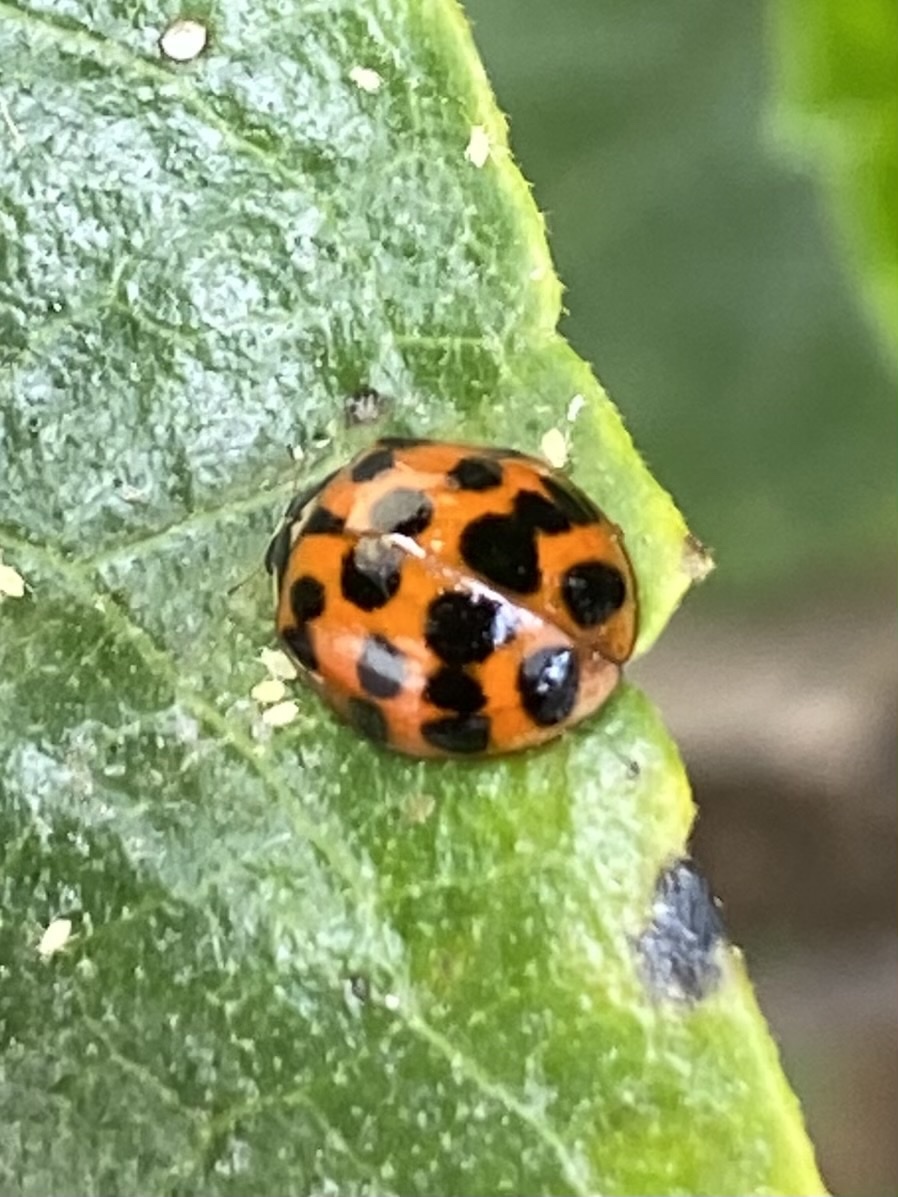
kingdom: Animalia
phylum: Arthropoda
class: Insecta
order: Coleoptera
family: Coccinellidae
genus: Harmonia
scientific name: Harmonia axyridis
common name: Harlequin ladybird
